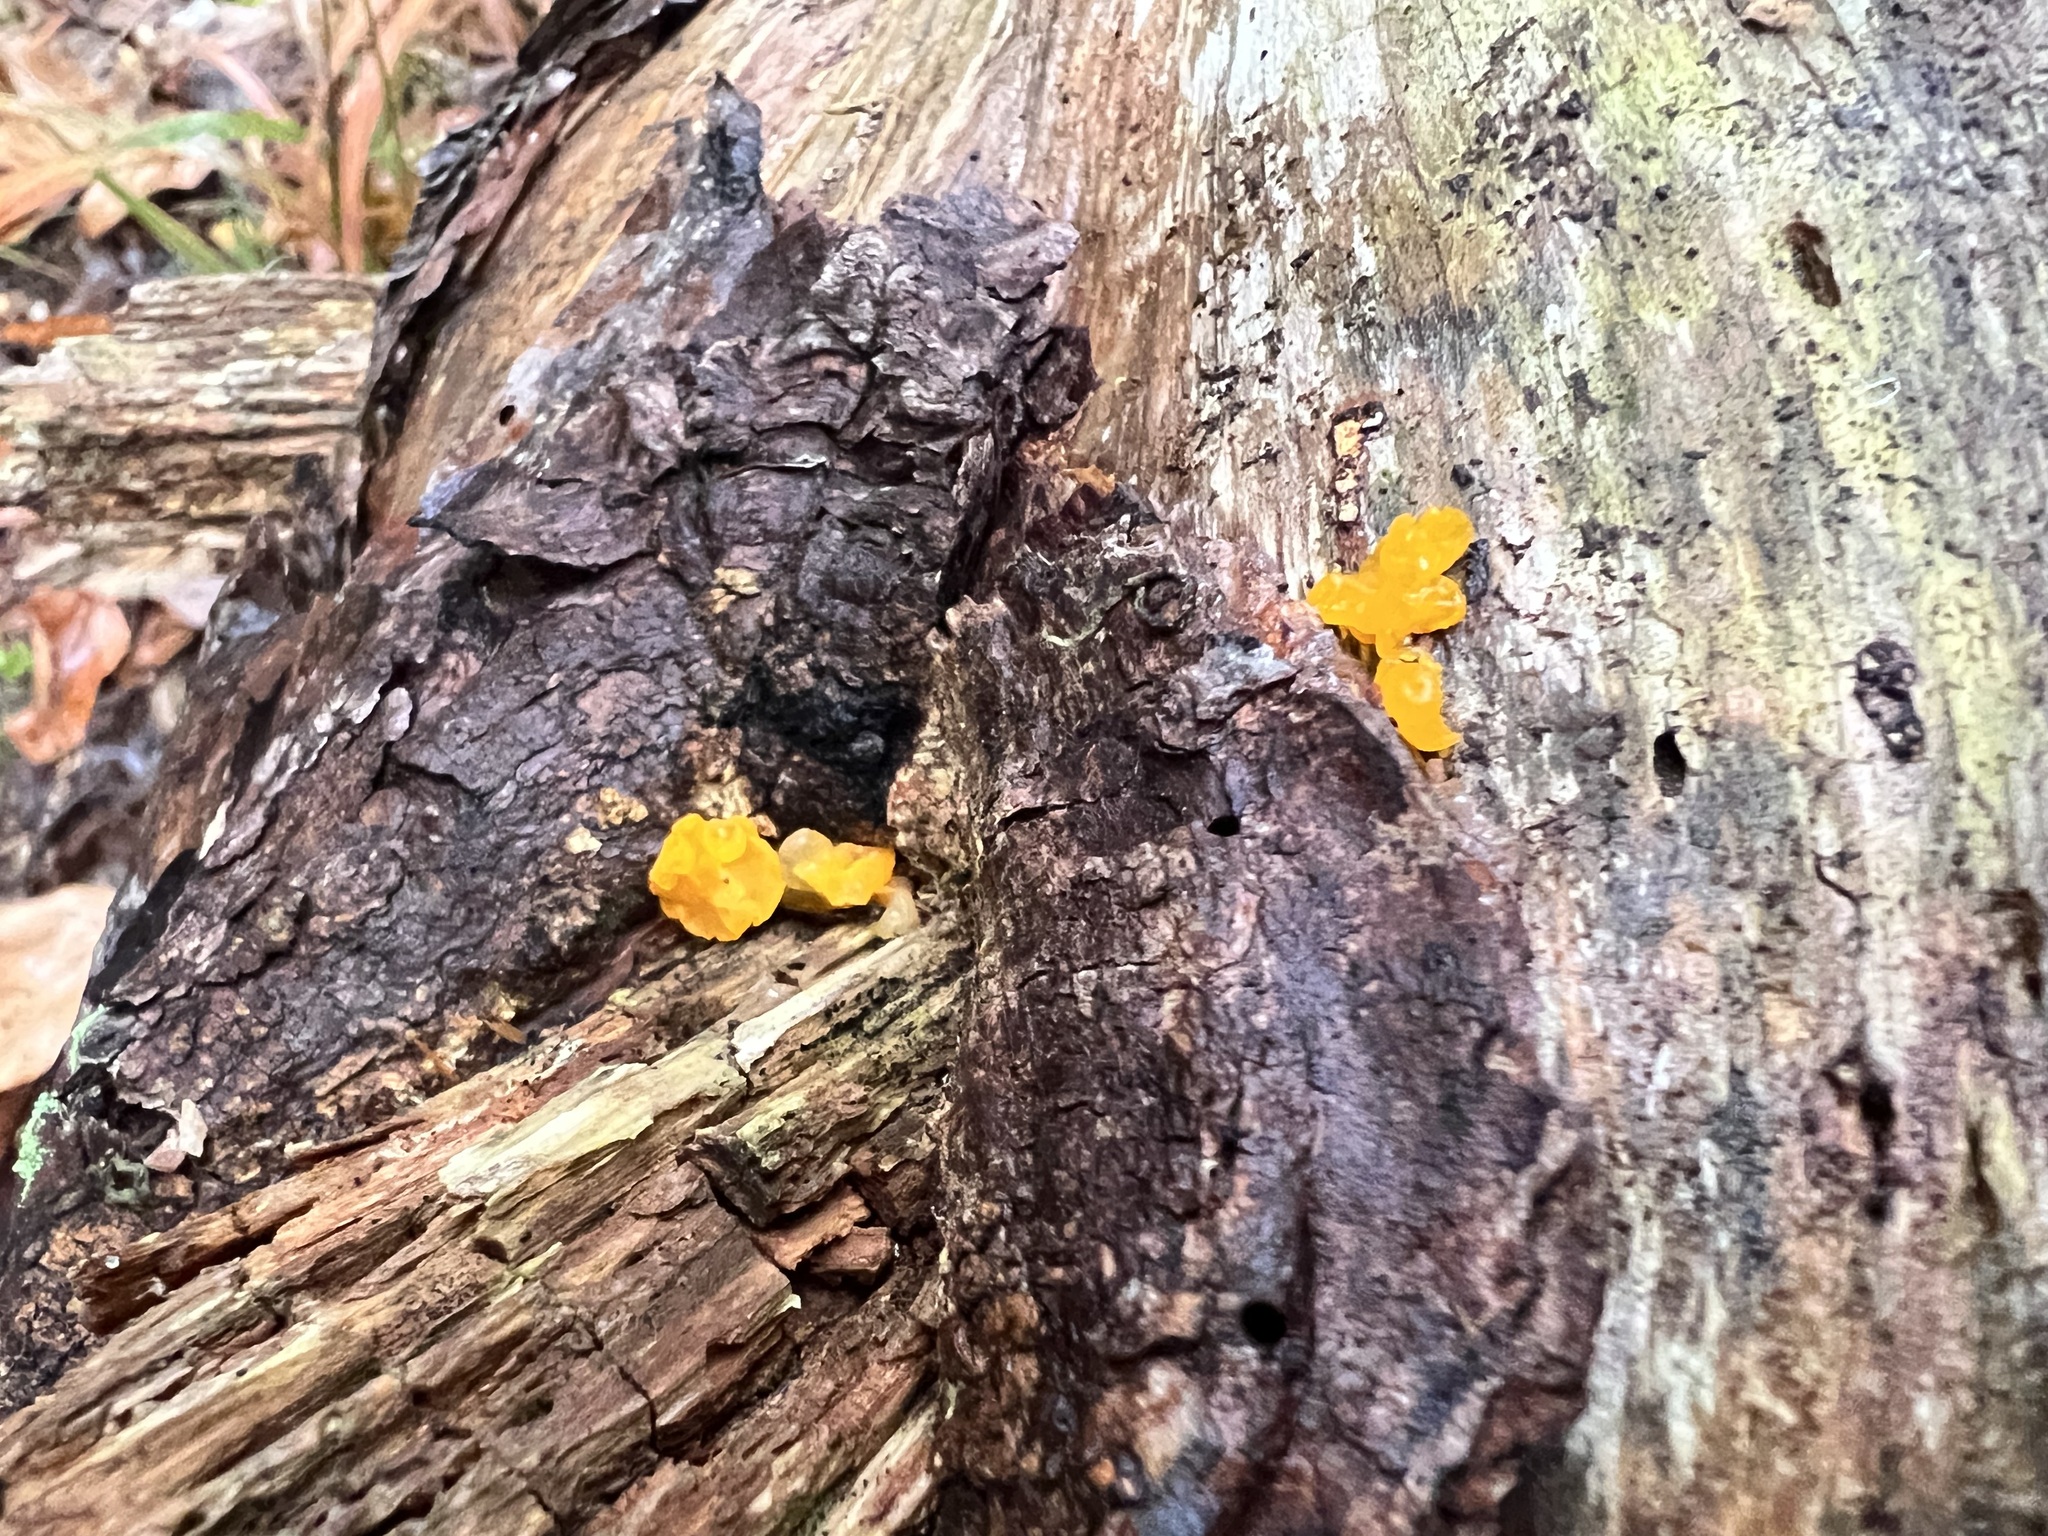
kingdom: Fungi
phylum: Basidiomycota
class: Dacrymycetes
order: Dacrymycetales
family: Dacrymycetaceae
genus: Dacrymyces
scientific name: Dacrymyces chrysospermus
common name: Orange jelly spot
